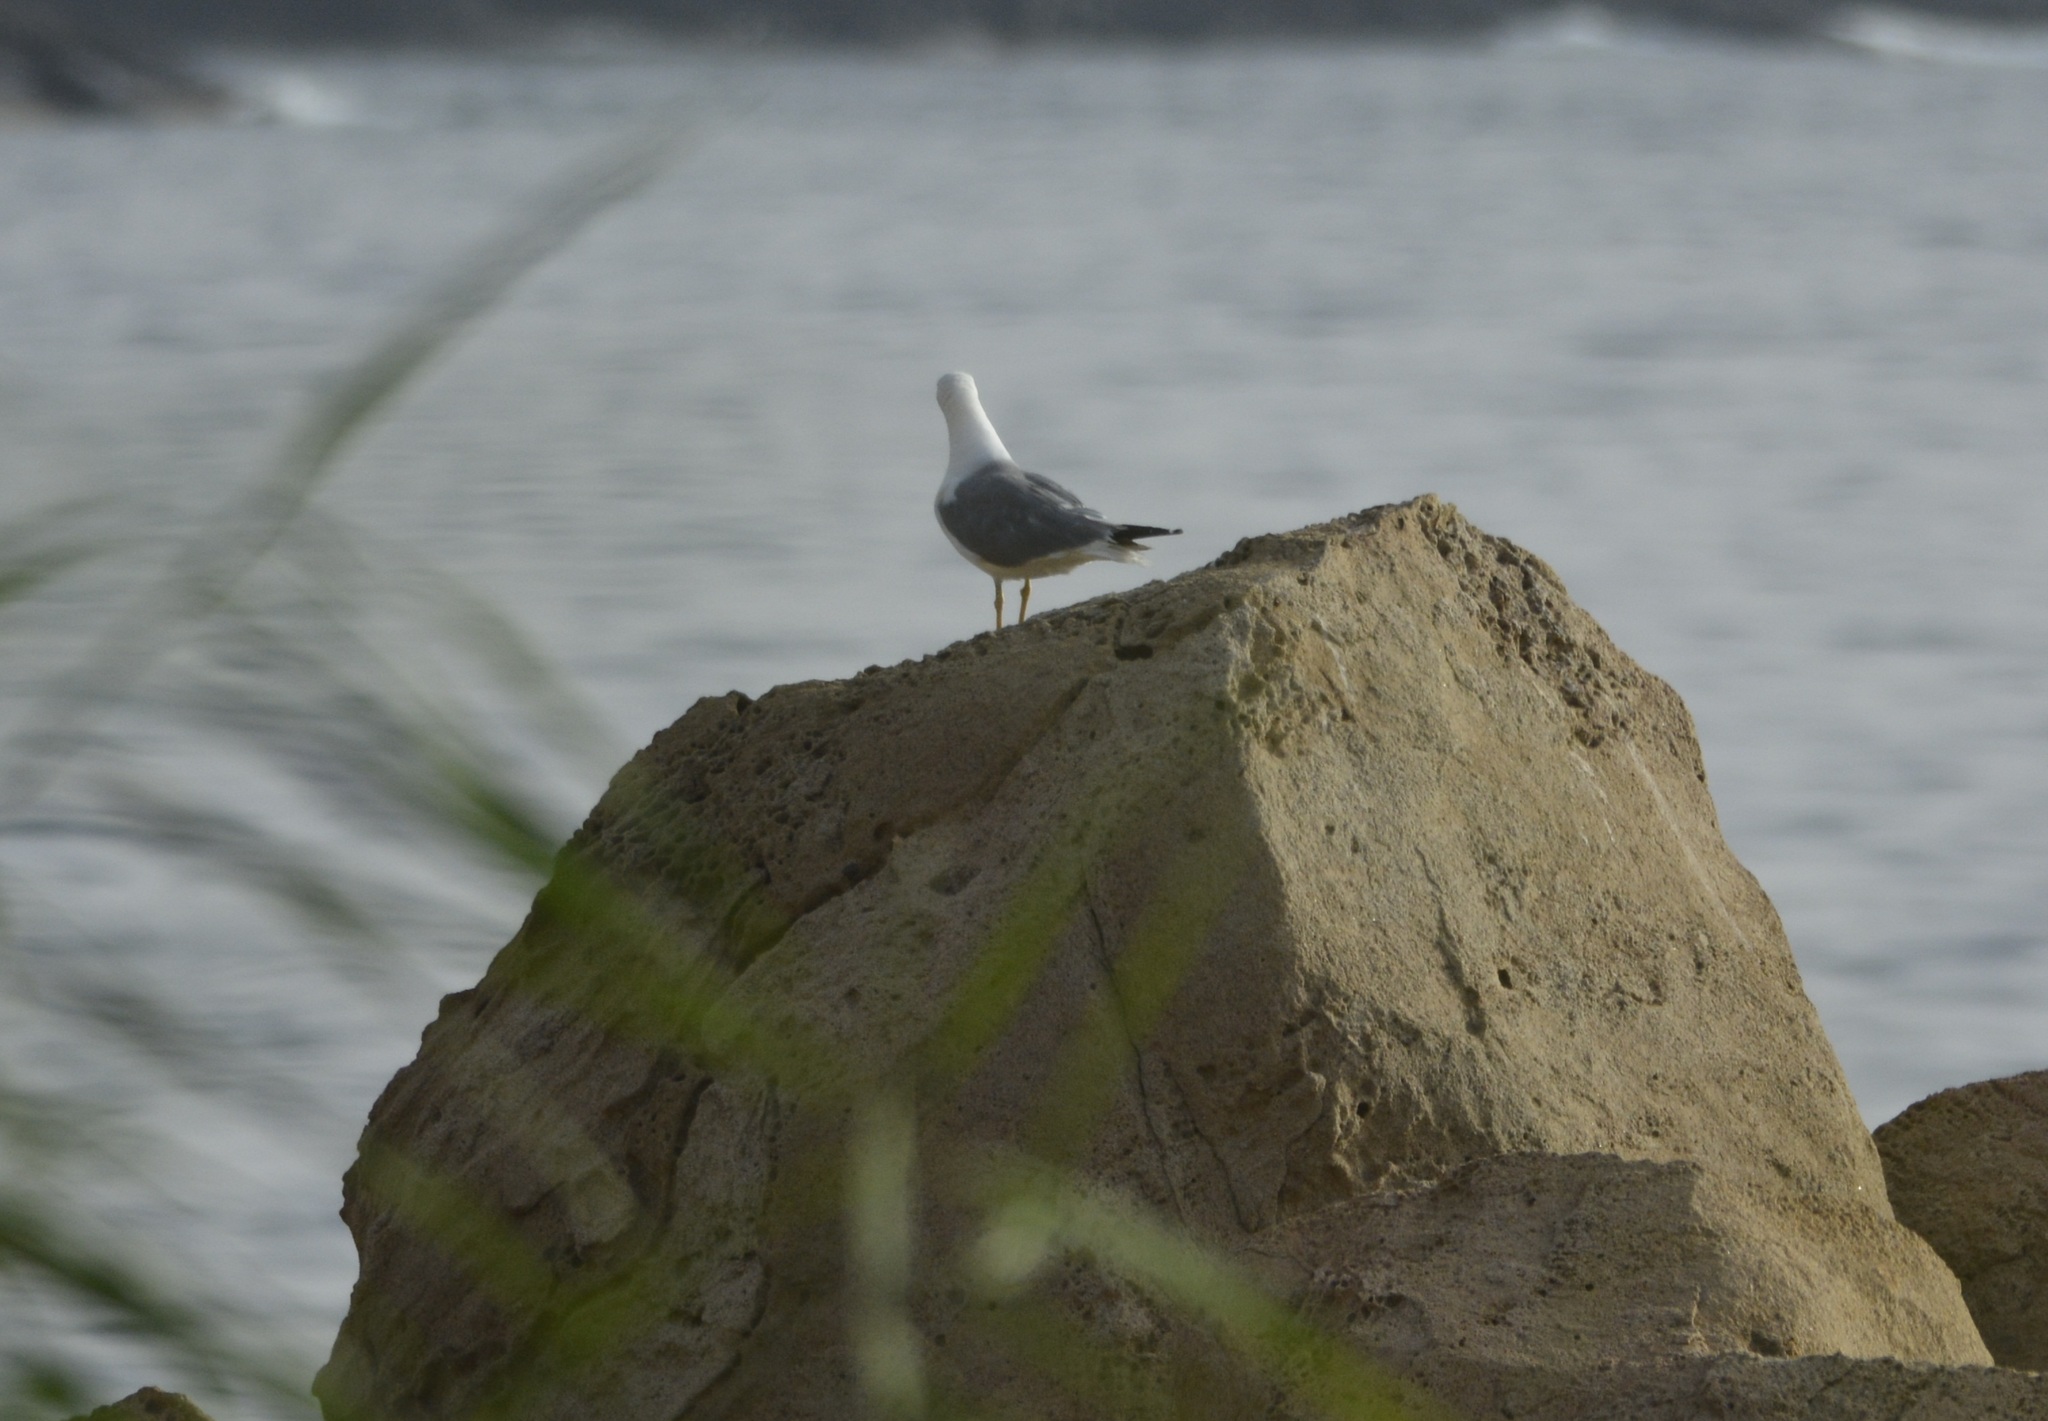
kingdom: Animalia
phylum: Chordata
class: Aves
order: Charadriiformes
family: Laridae
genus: Larus
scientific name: Larus michahellis
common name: Yellow-legged gull
